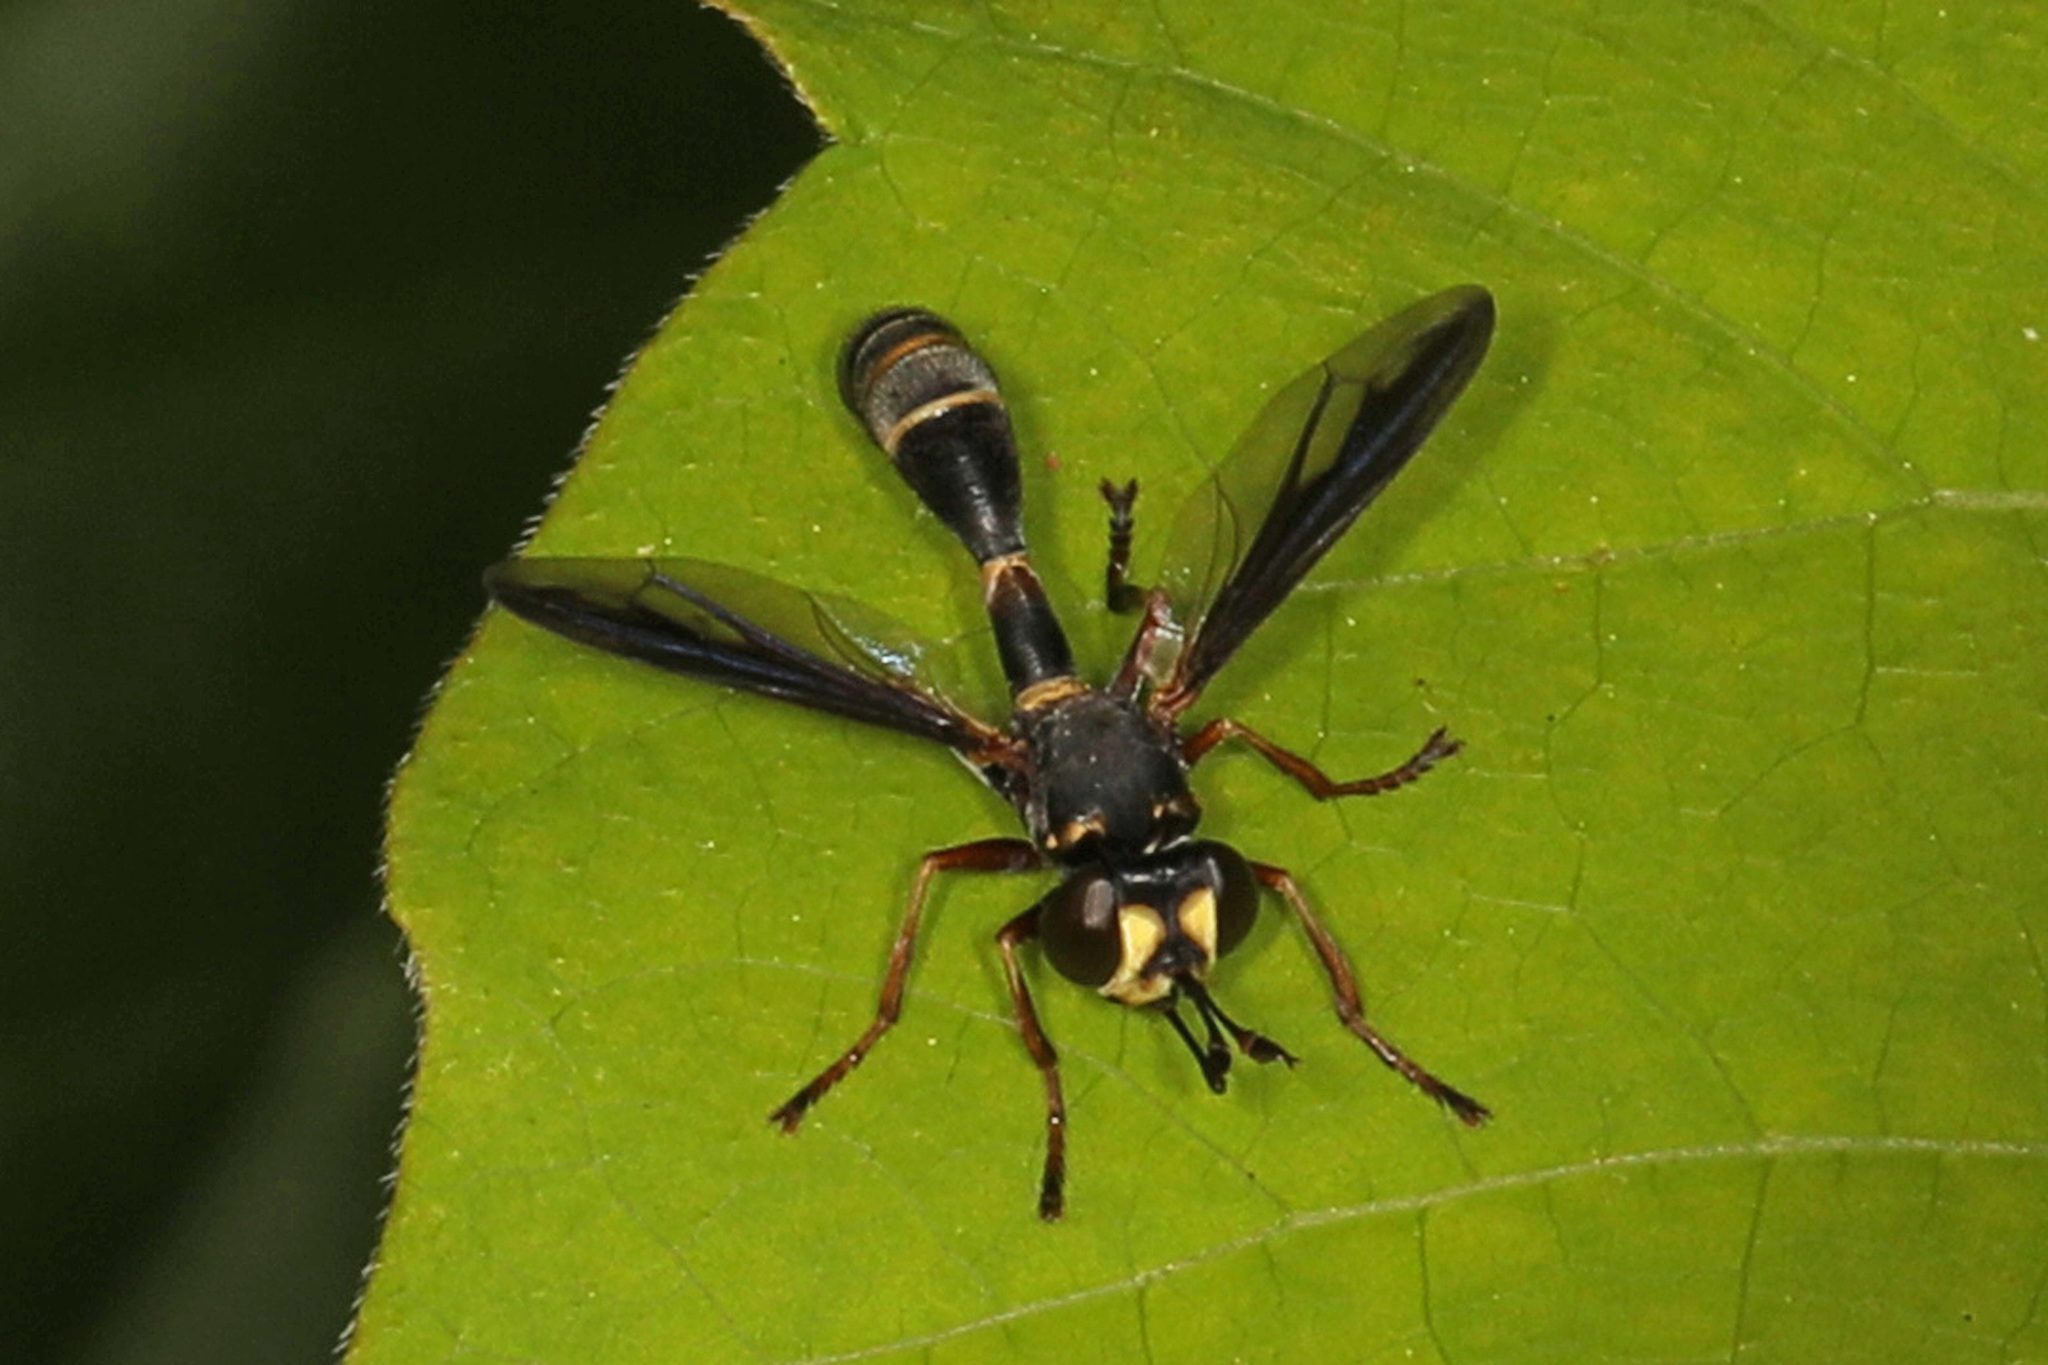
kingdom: Animalia
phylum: Arthropoda
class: Insecta
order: Diptera
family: Conopidae
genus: Physocephala
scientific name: Physocephala marginata
